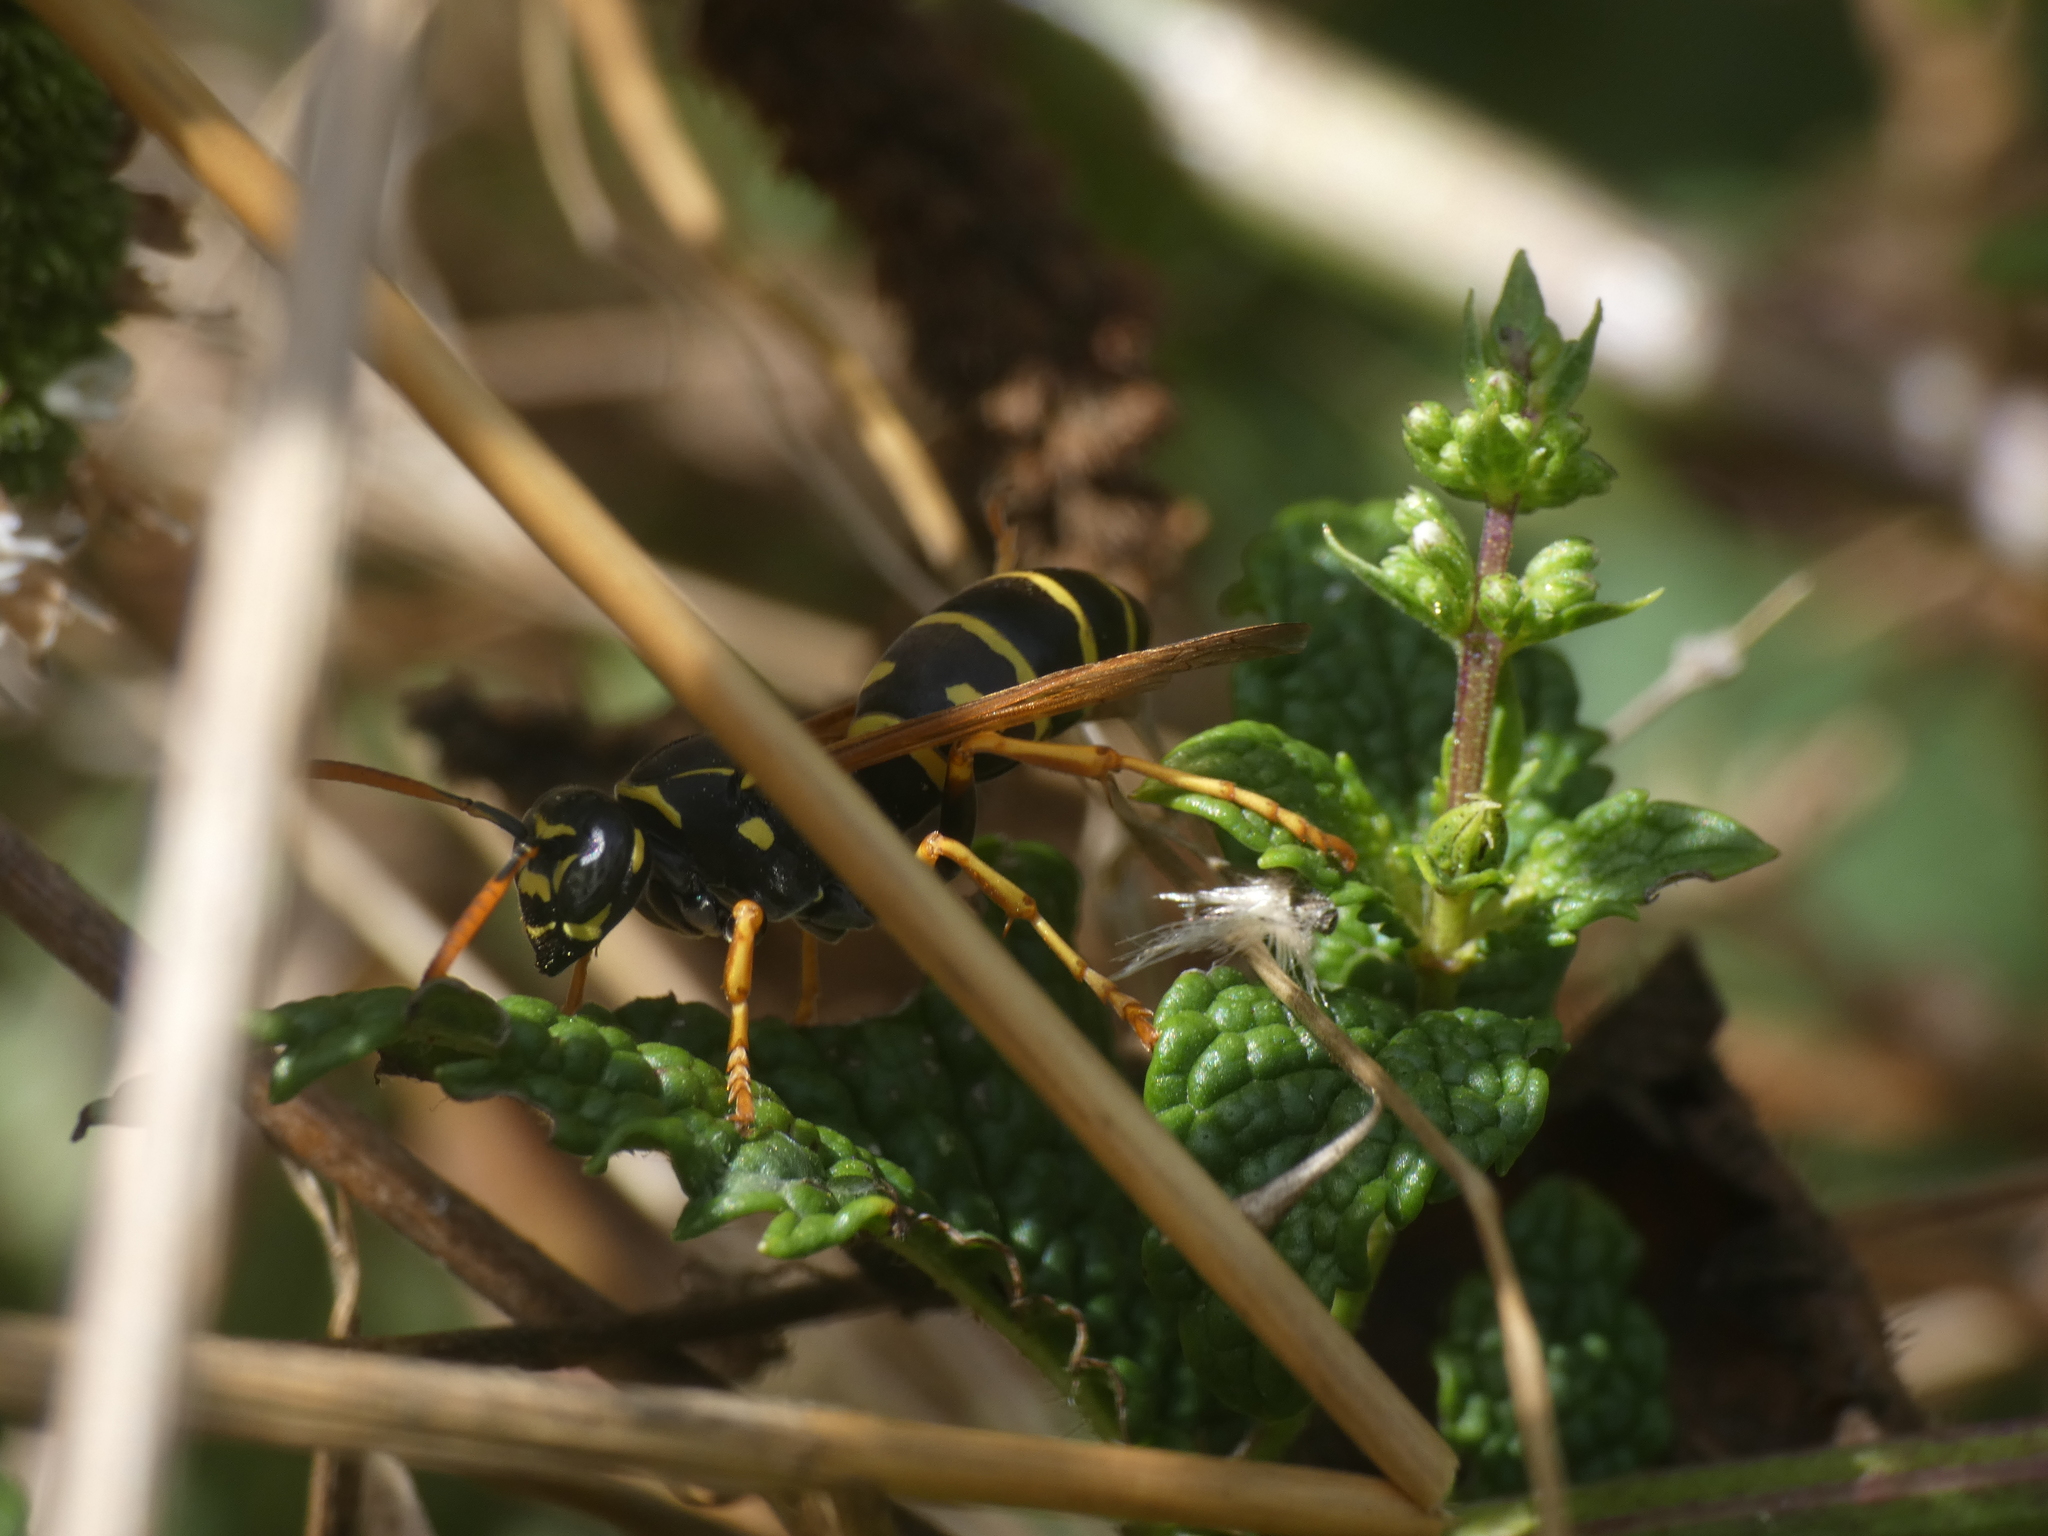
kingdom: Animalia
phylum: Arthropoda
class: Insecta
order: Hymenoptera
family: Eumenidae
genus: Polistes
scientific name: Polistes nimpha
